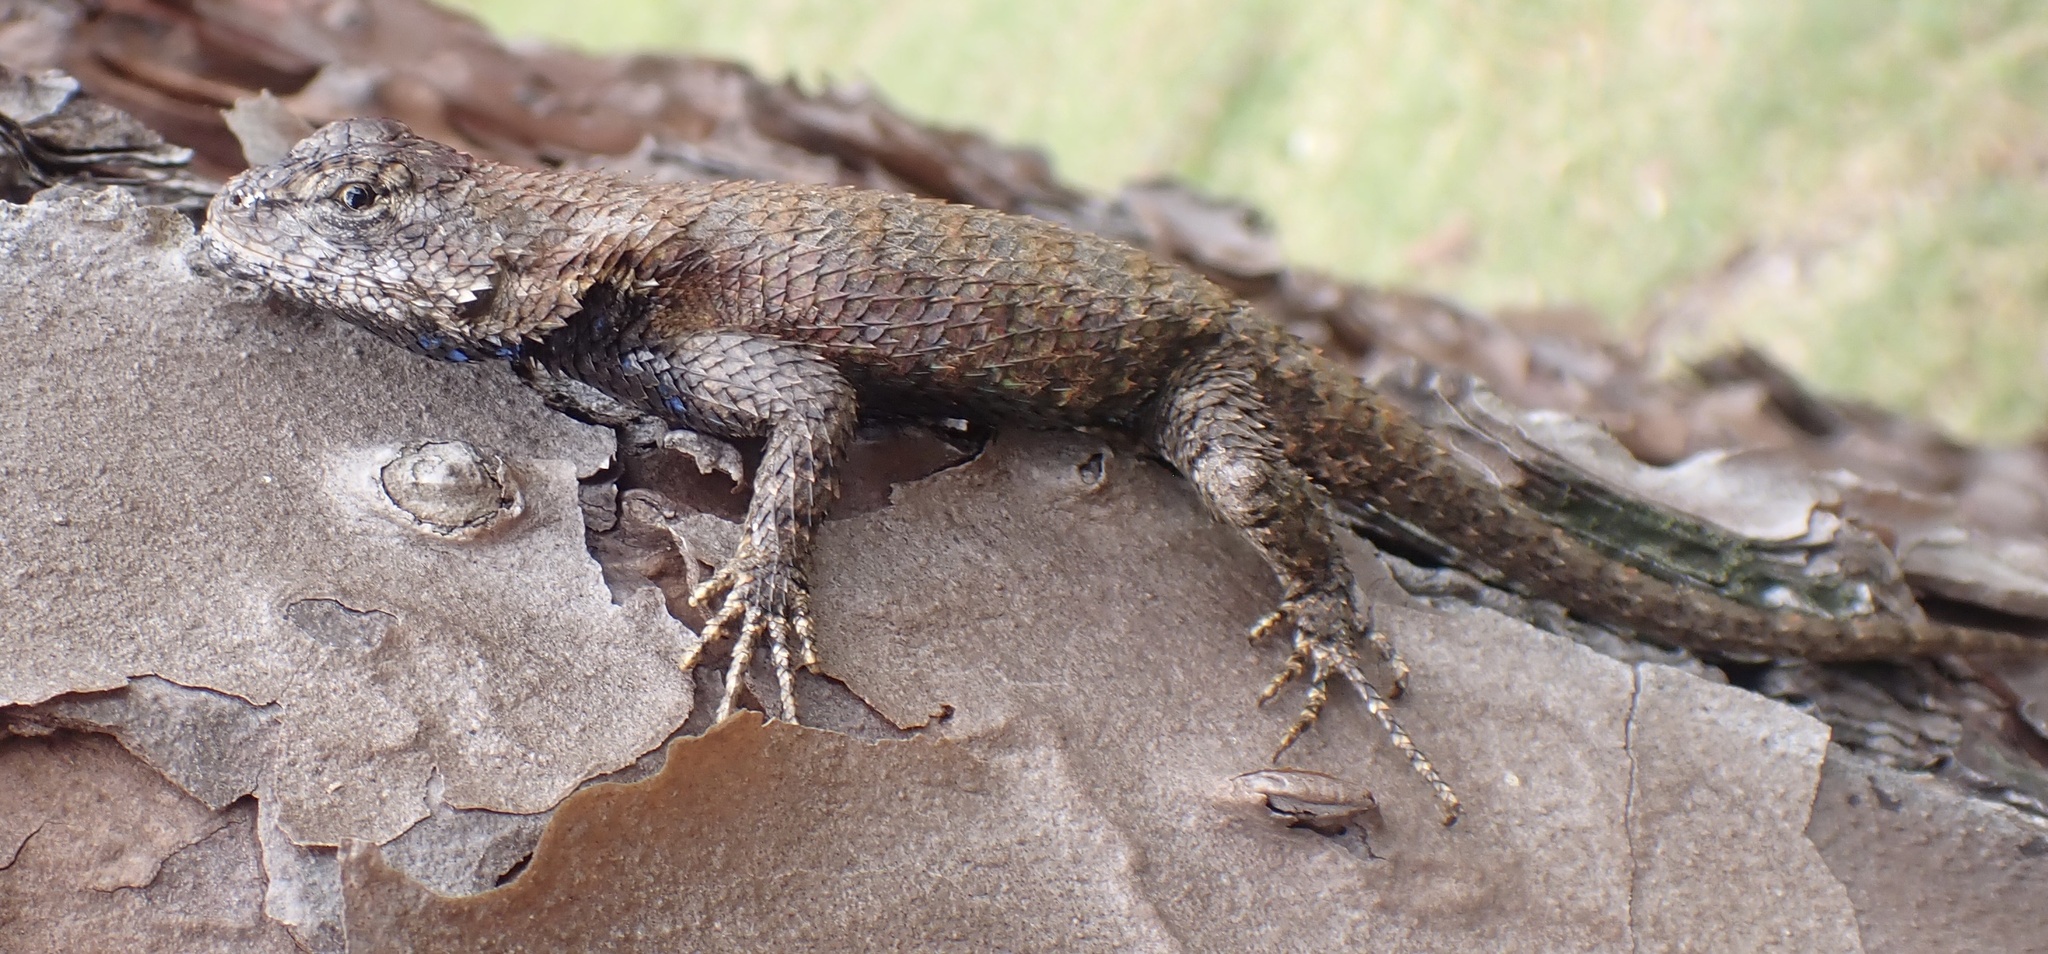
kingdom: Animalia
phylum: Chordata
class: Squamata
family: Phrynosomatidae
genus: Sceloporus
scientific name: Sceloporus undulatus
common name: Eastern fence lizard
